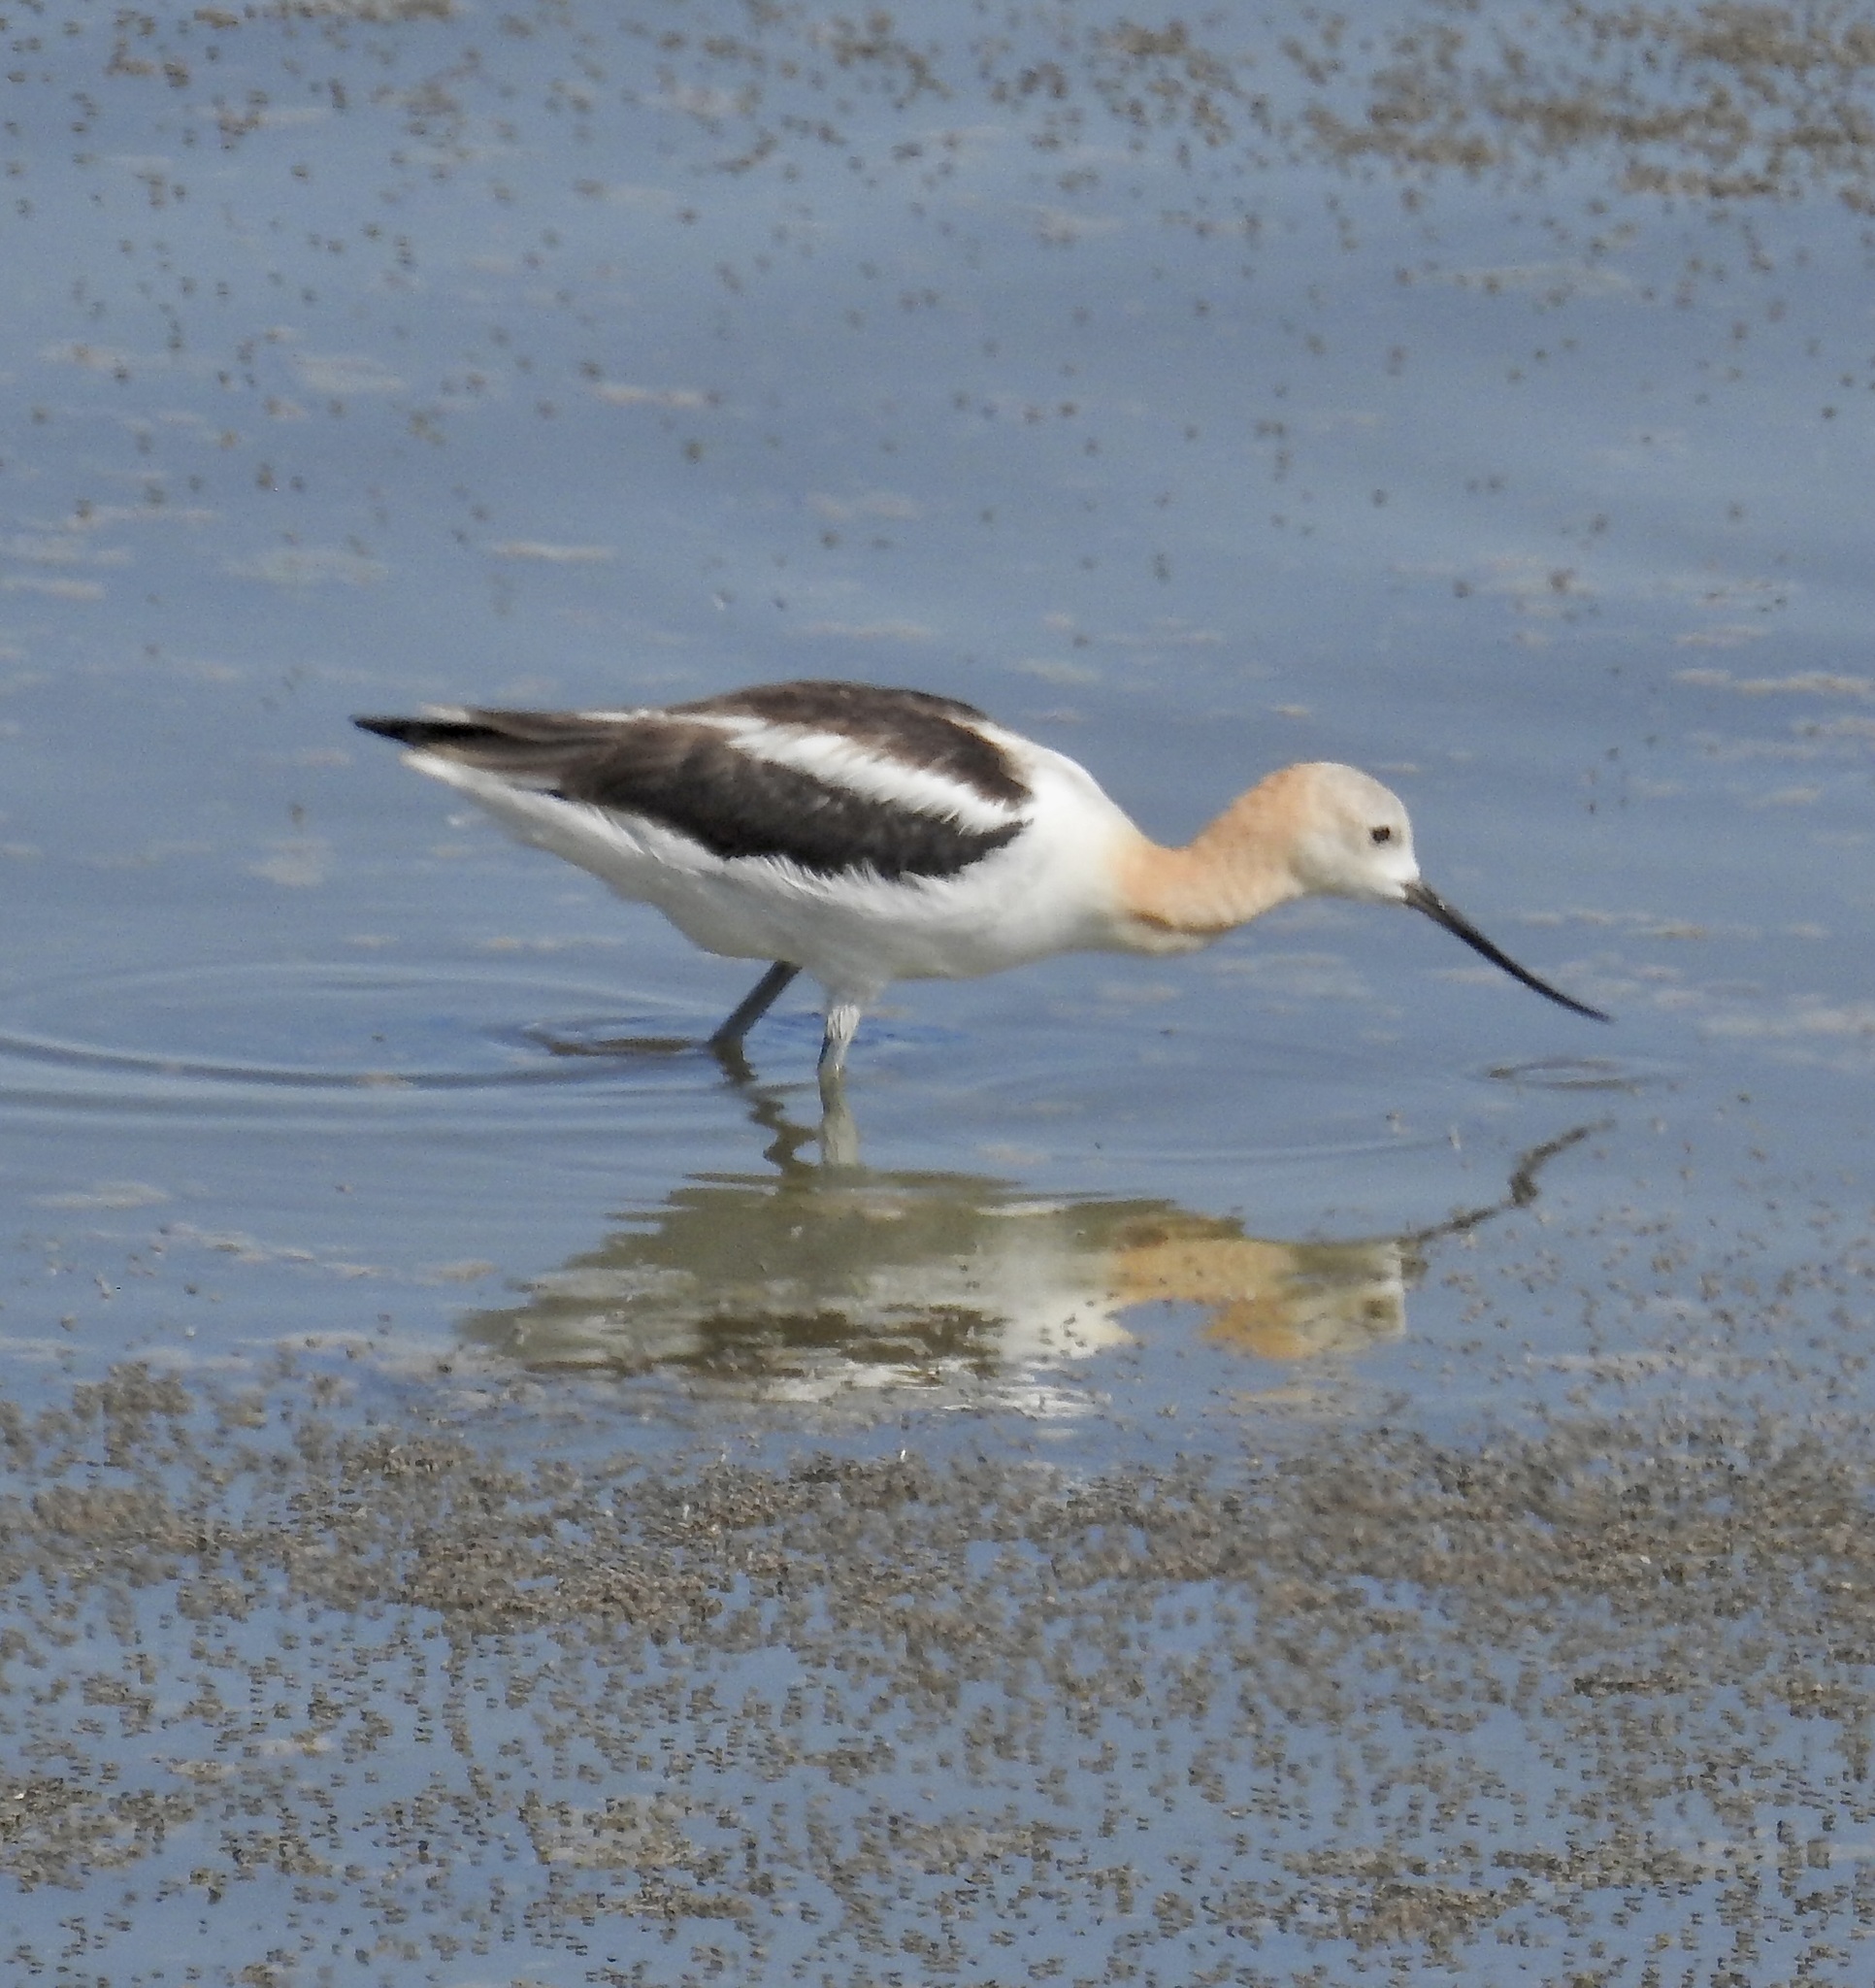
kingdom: Animalia
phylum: Chordata
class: Aves
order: Charadriiformes
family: Recurvirostridae
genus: Recurvirostra
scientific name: Recurvirostra americana
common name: American avocet
